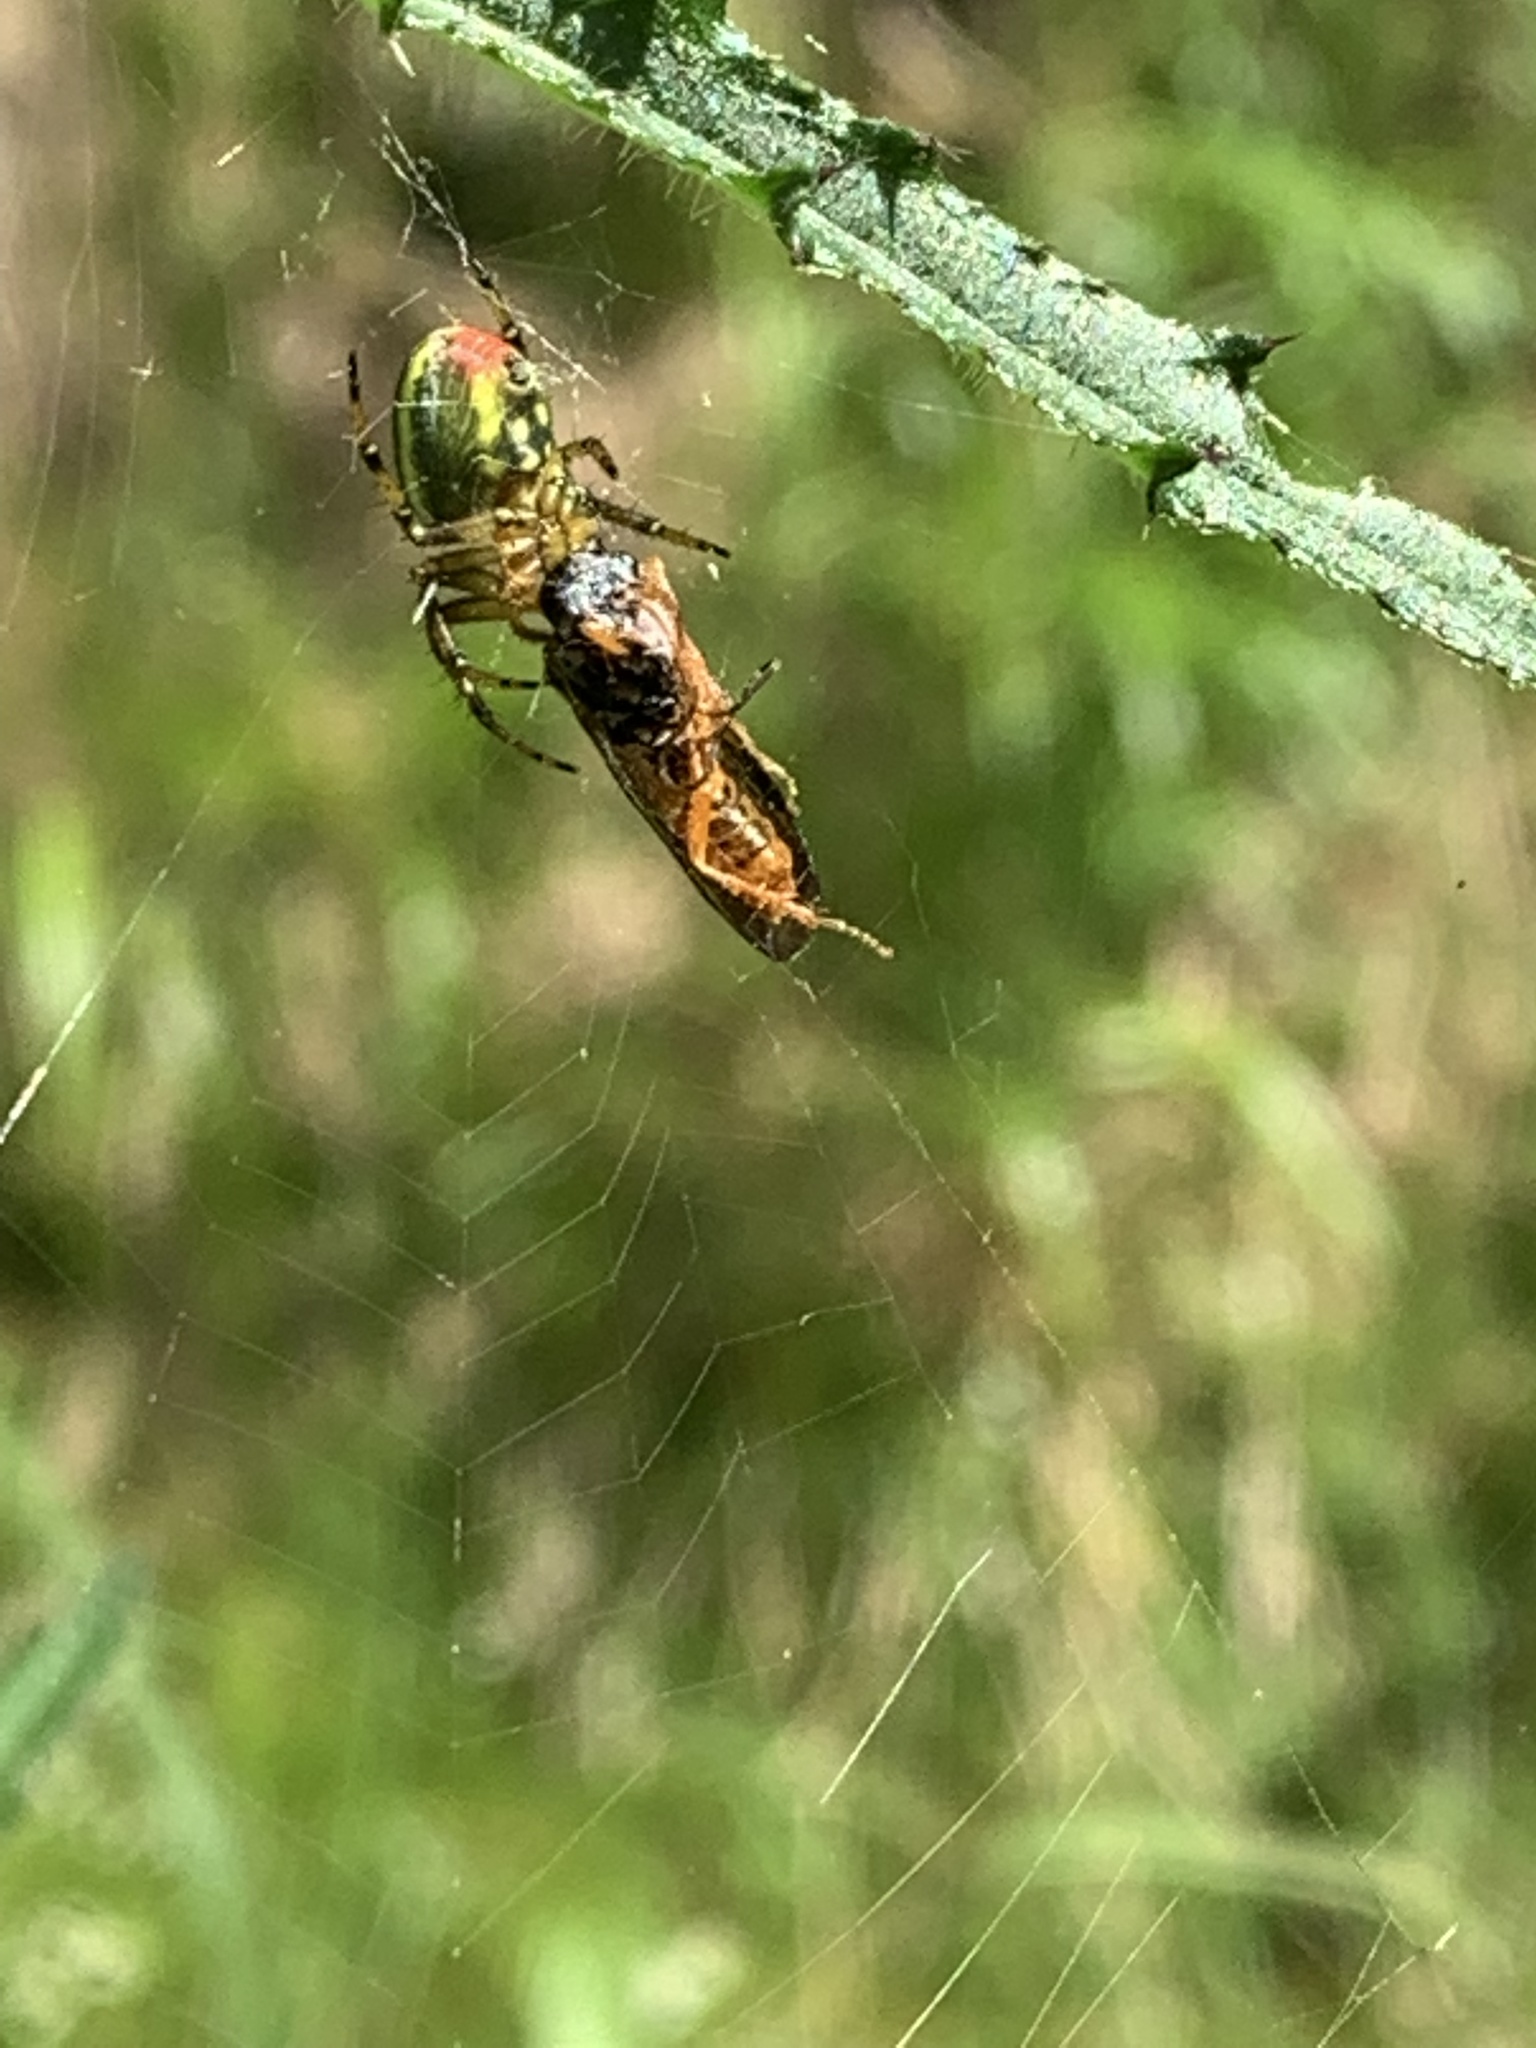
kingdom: Animalia
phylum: Arthropoda
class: Arachnida
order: Araneae
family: Araneidae
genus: Araniella
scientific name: Araniella alpica
